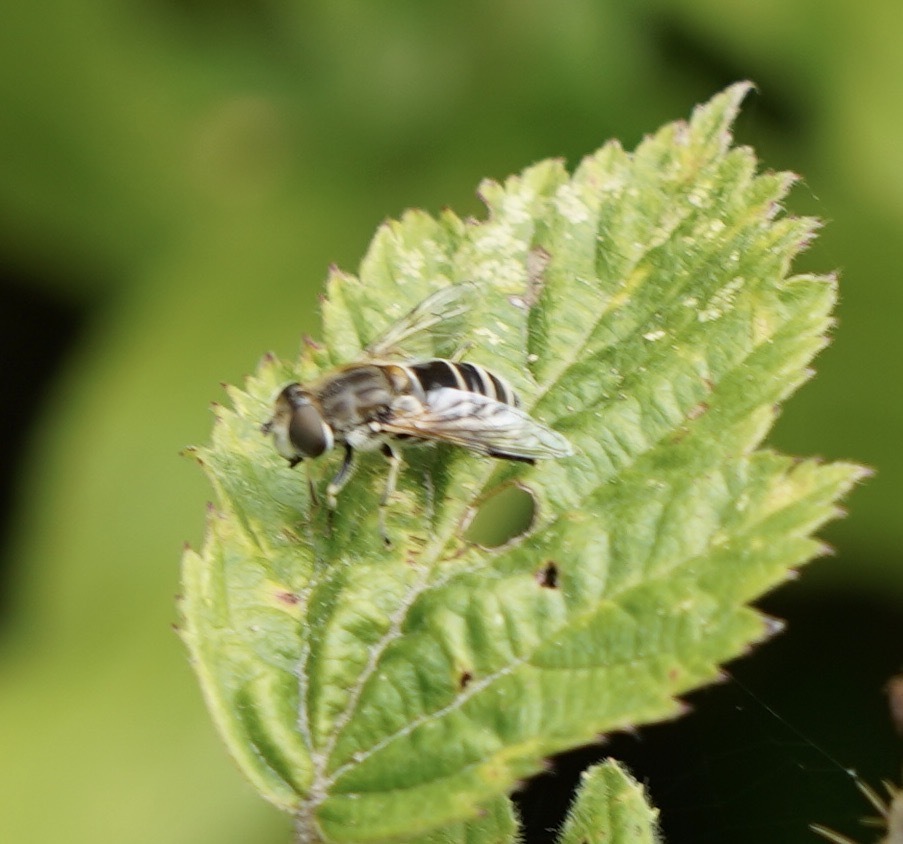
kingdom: Animalia
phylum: Arthropoda
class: Insecta
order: Diptera
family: Syrphidae
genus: Eristalis
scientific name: Eristalis arbustorum
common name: Hover fly
